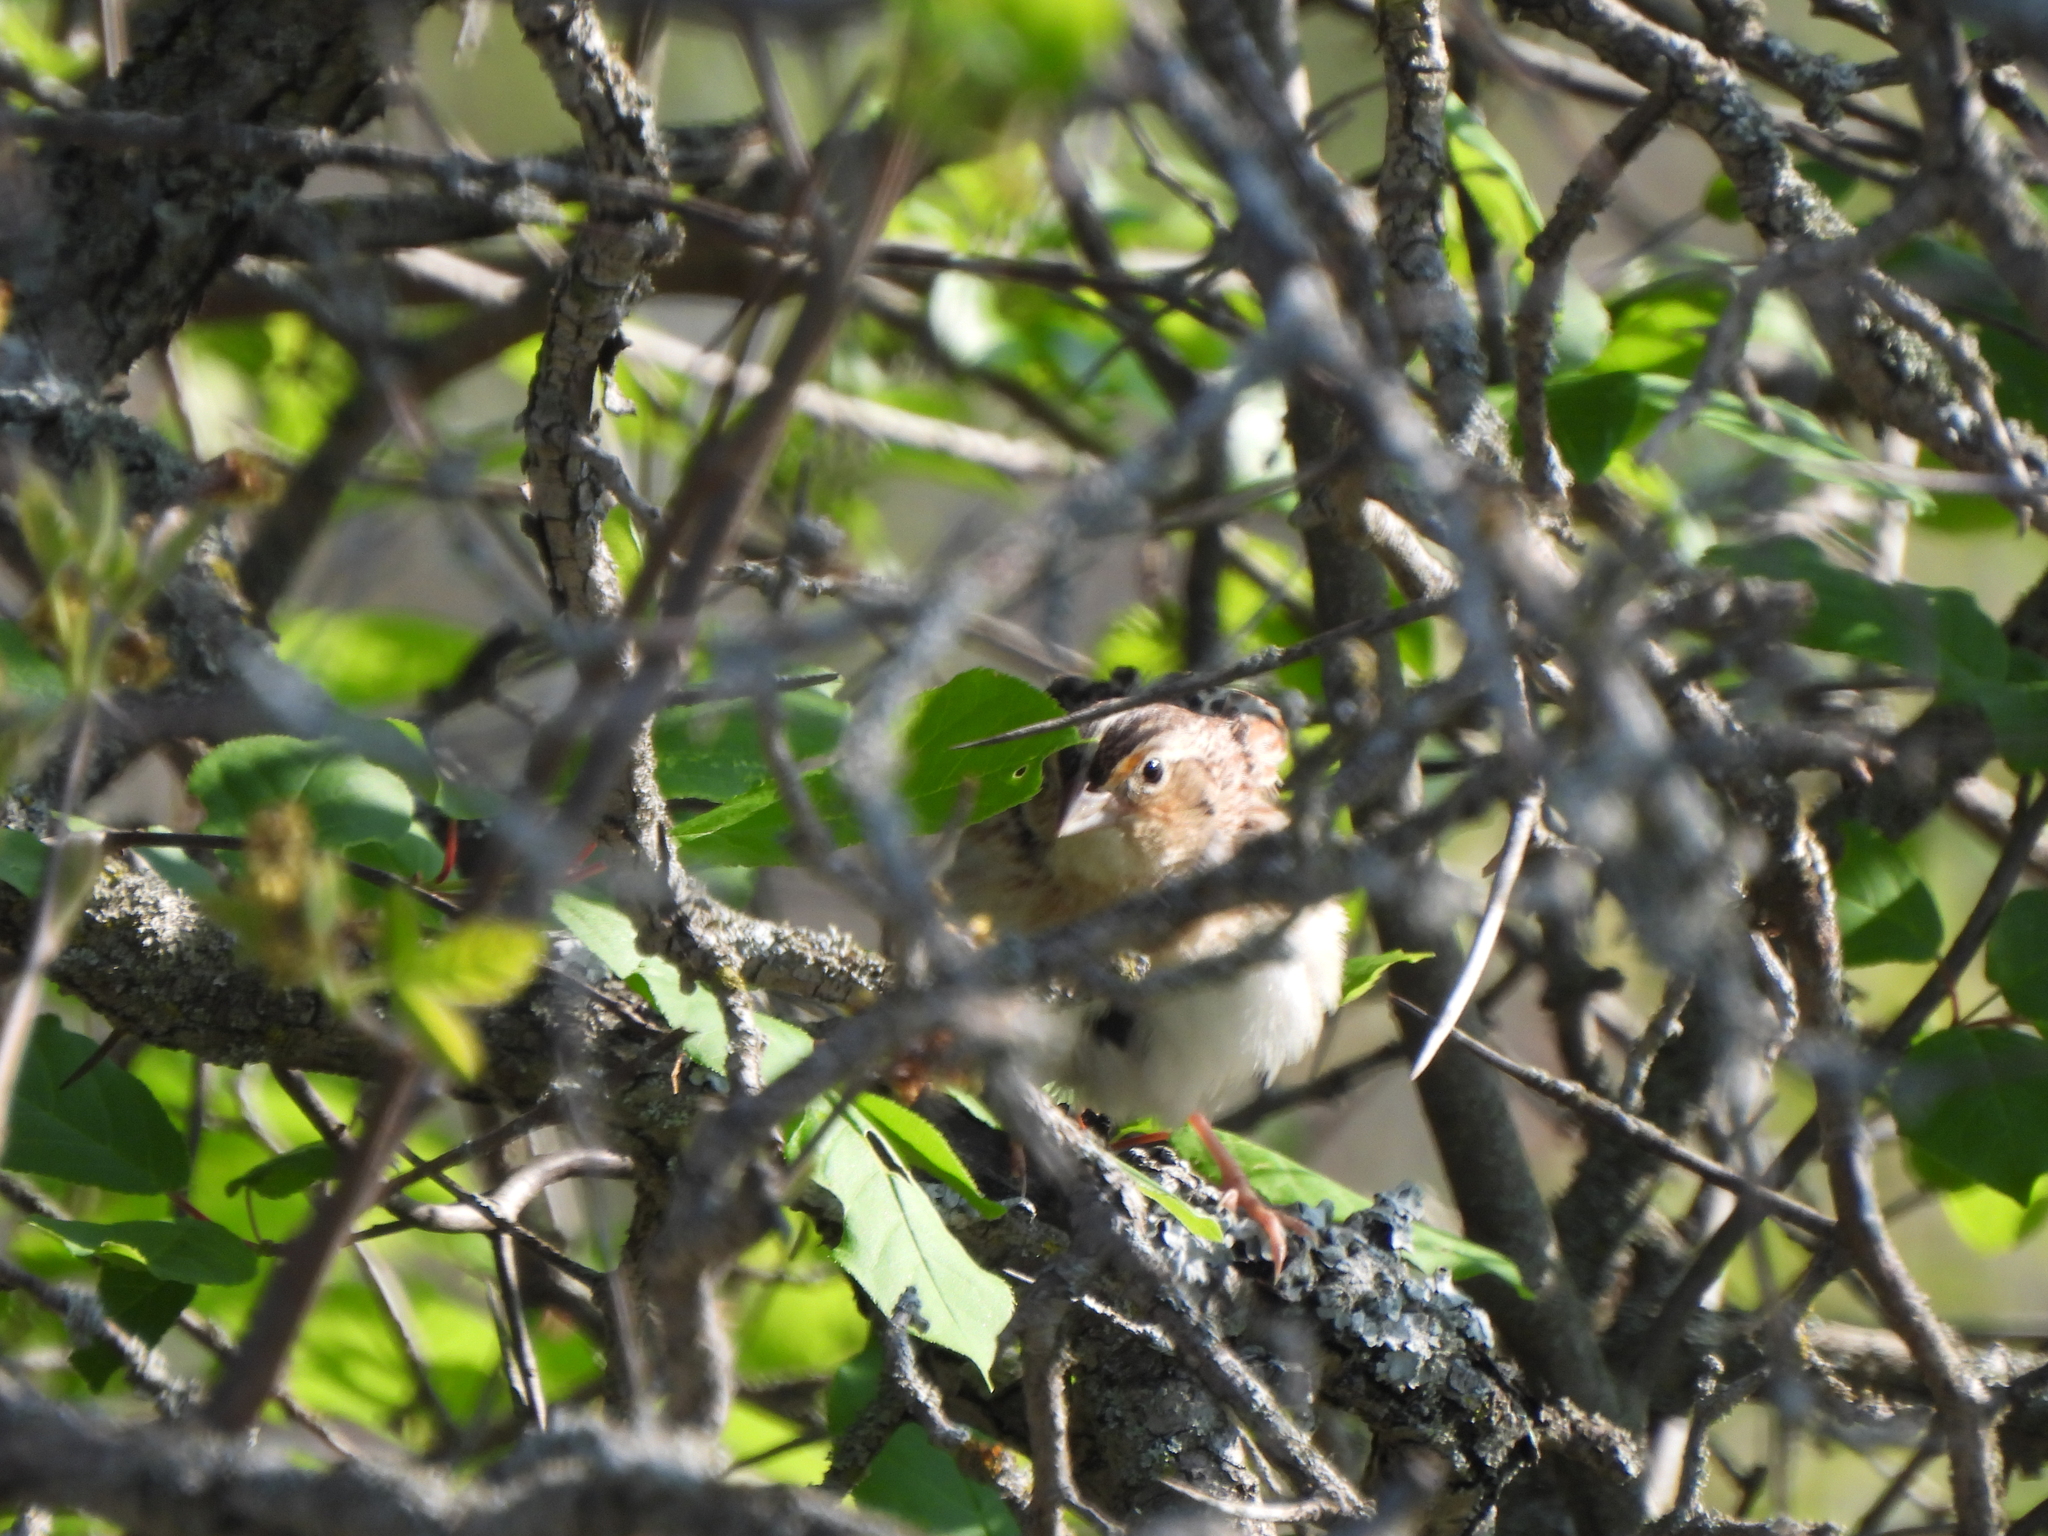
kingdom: Animalia
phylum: Chordata
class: Aves
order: Passeriformes
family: Passerellidae
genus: Ammodramus
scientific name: Ammodramus savannarum
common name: Grasshopper sparrow
